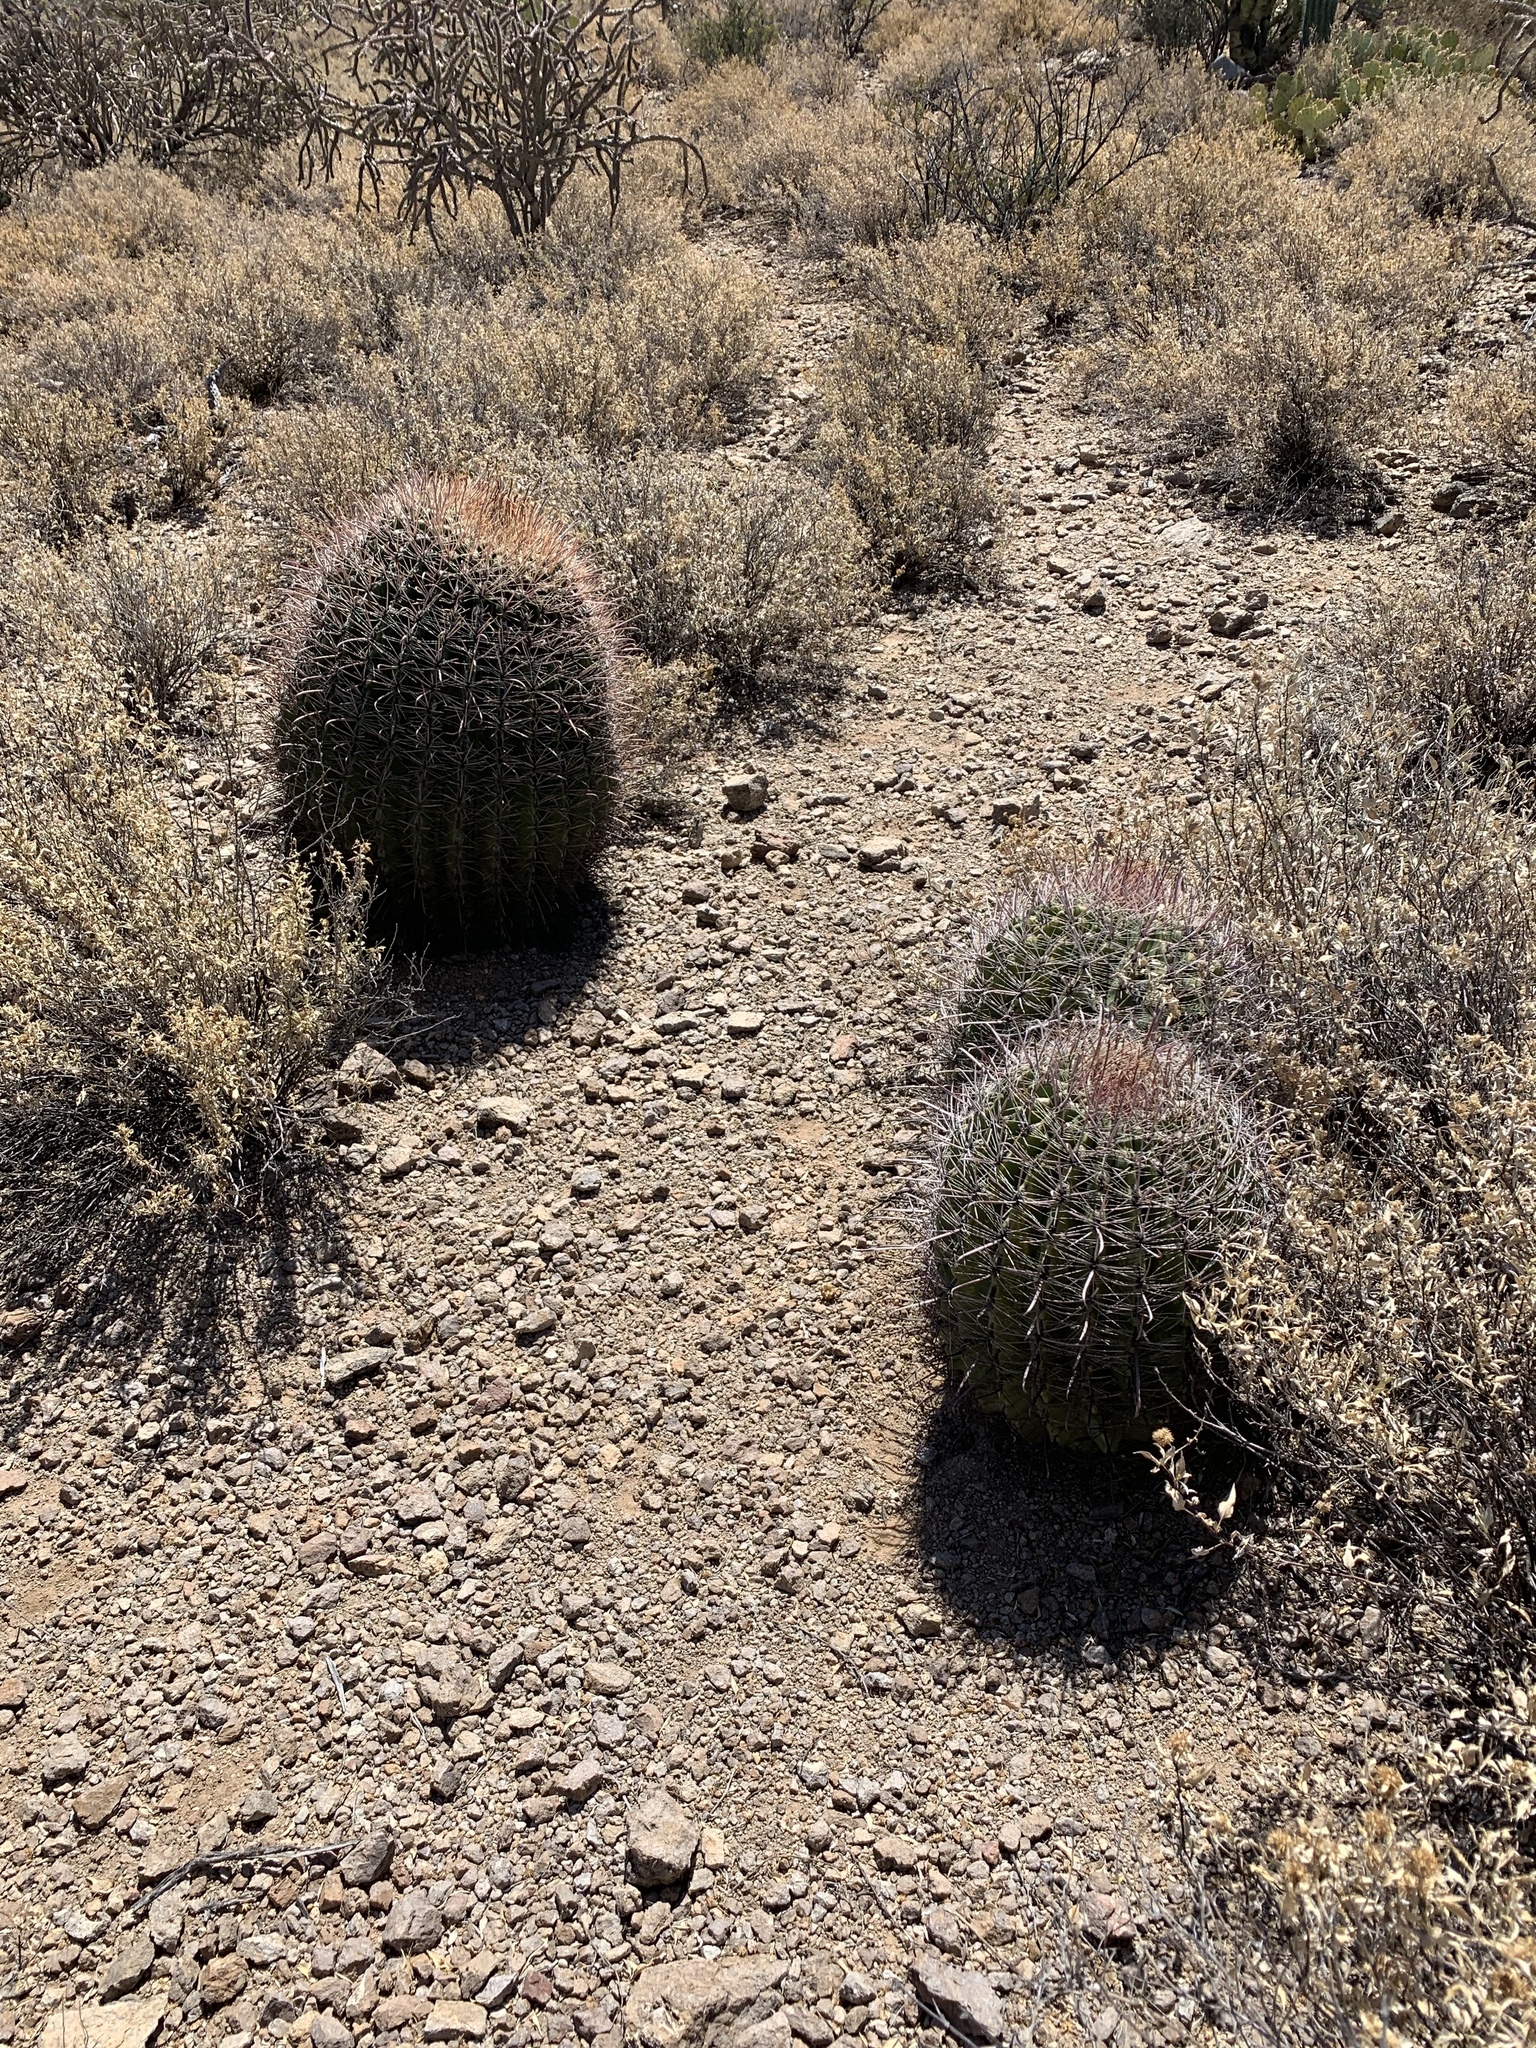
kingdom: Plantae
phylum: Tracheophyta
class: Magnoliopsida
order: Caryophyllales
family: Cactaceae
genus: Ferocactus
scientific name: Ferocactus wislizeni
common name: Candy barrel cactus
